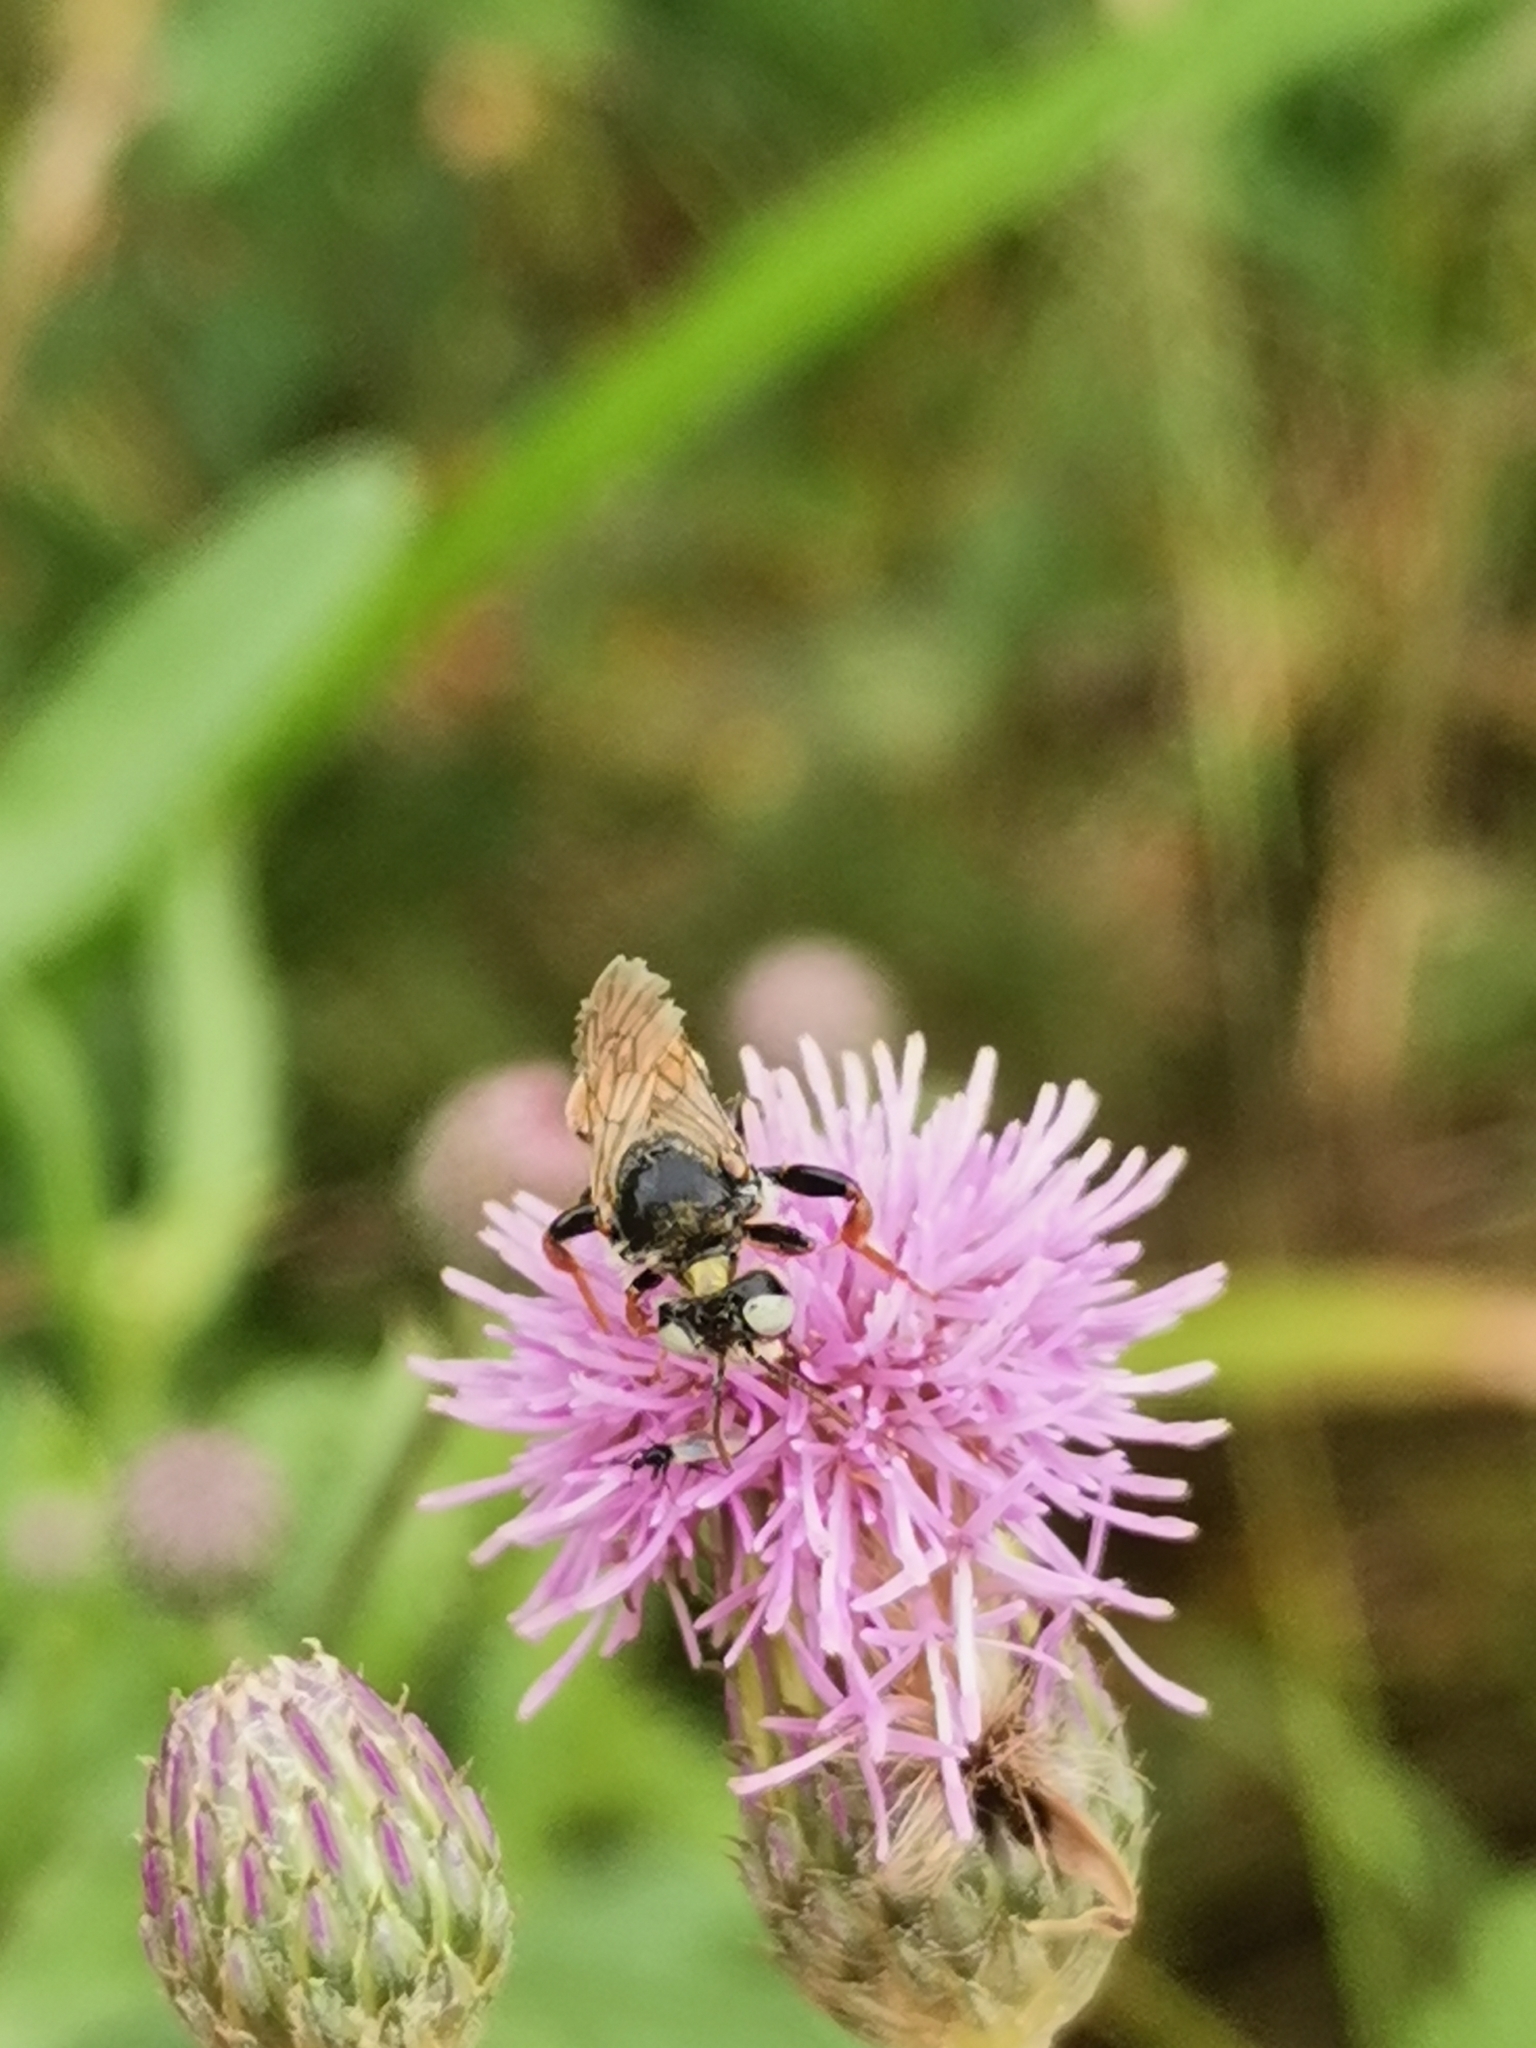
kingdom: Animalia
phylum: Arthropoda
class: Insecta
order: Hymenoptera
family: Apidae
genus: Epeoloides
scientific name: Epeoloides coecutiens
